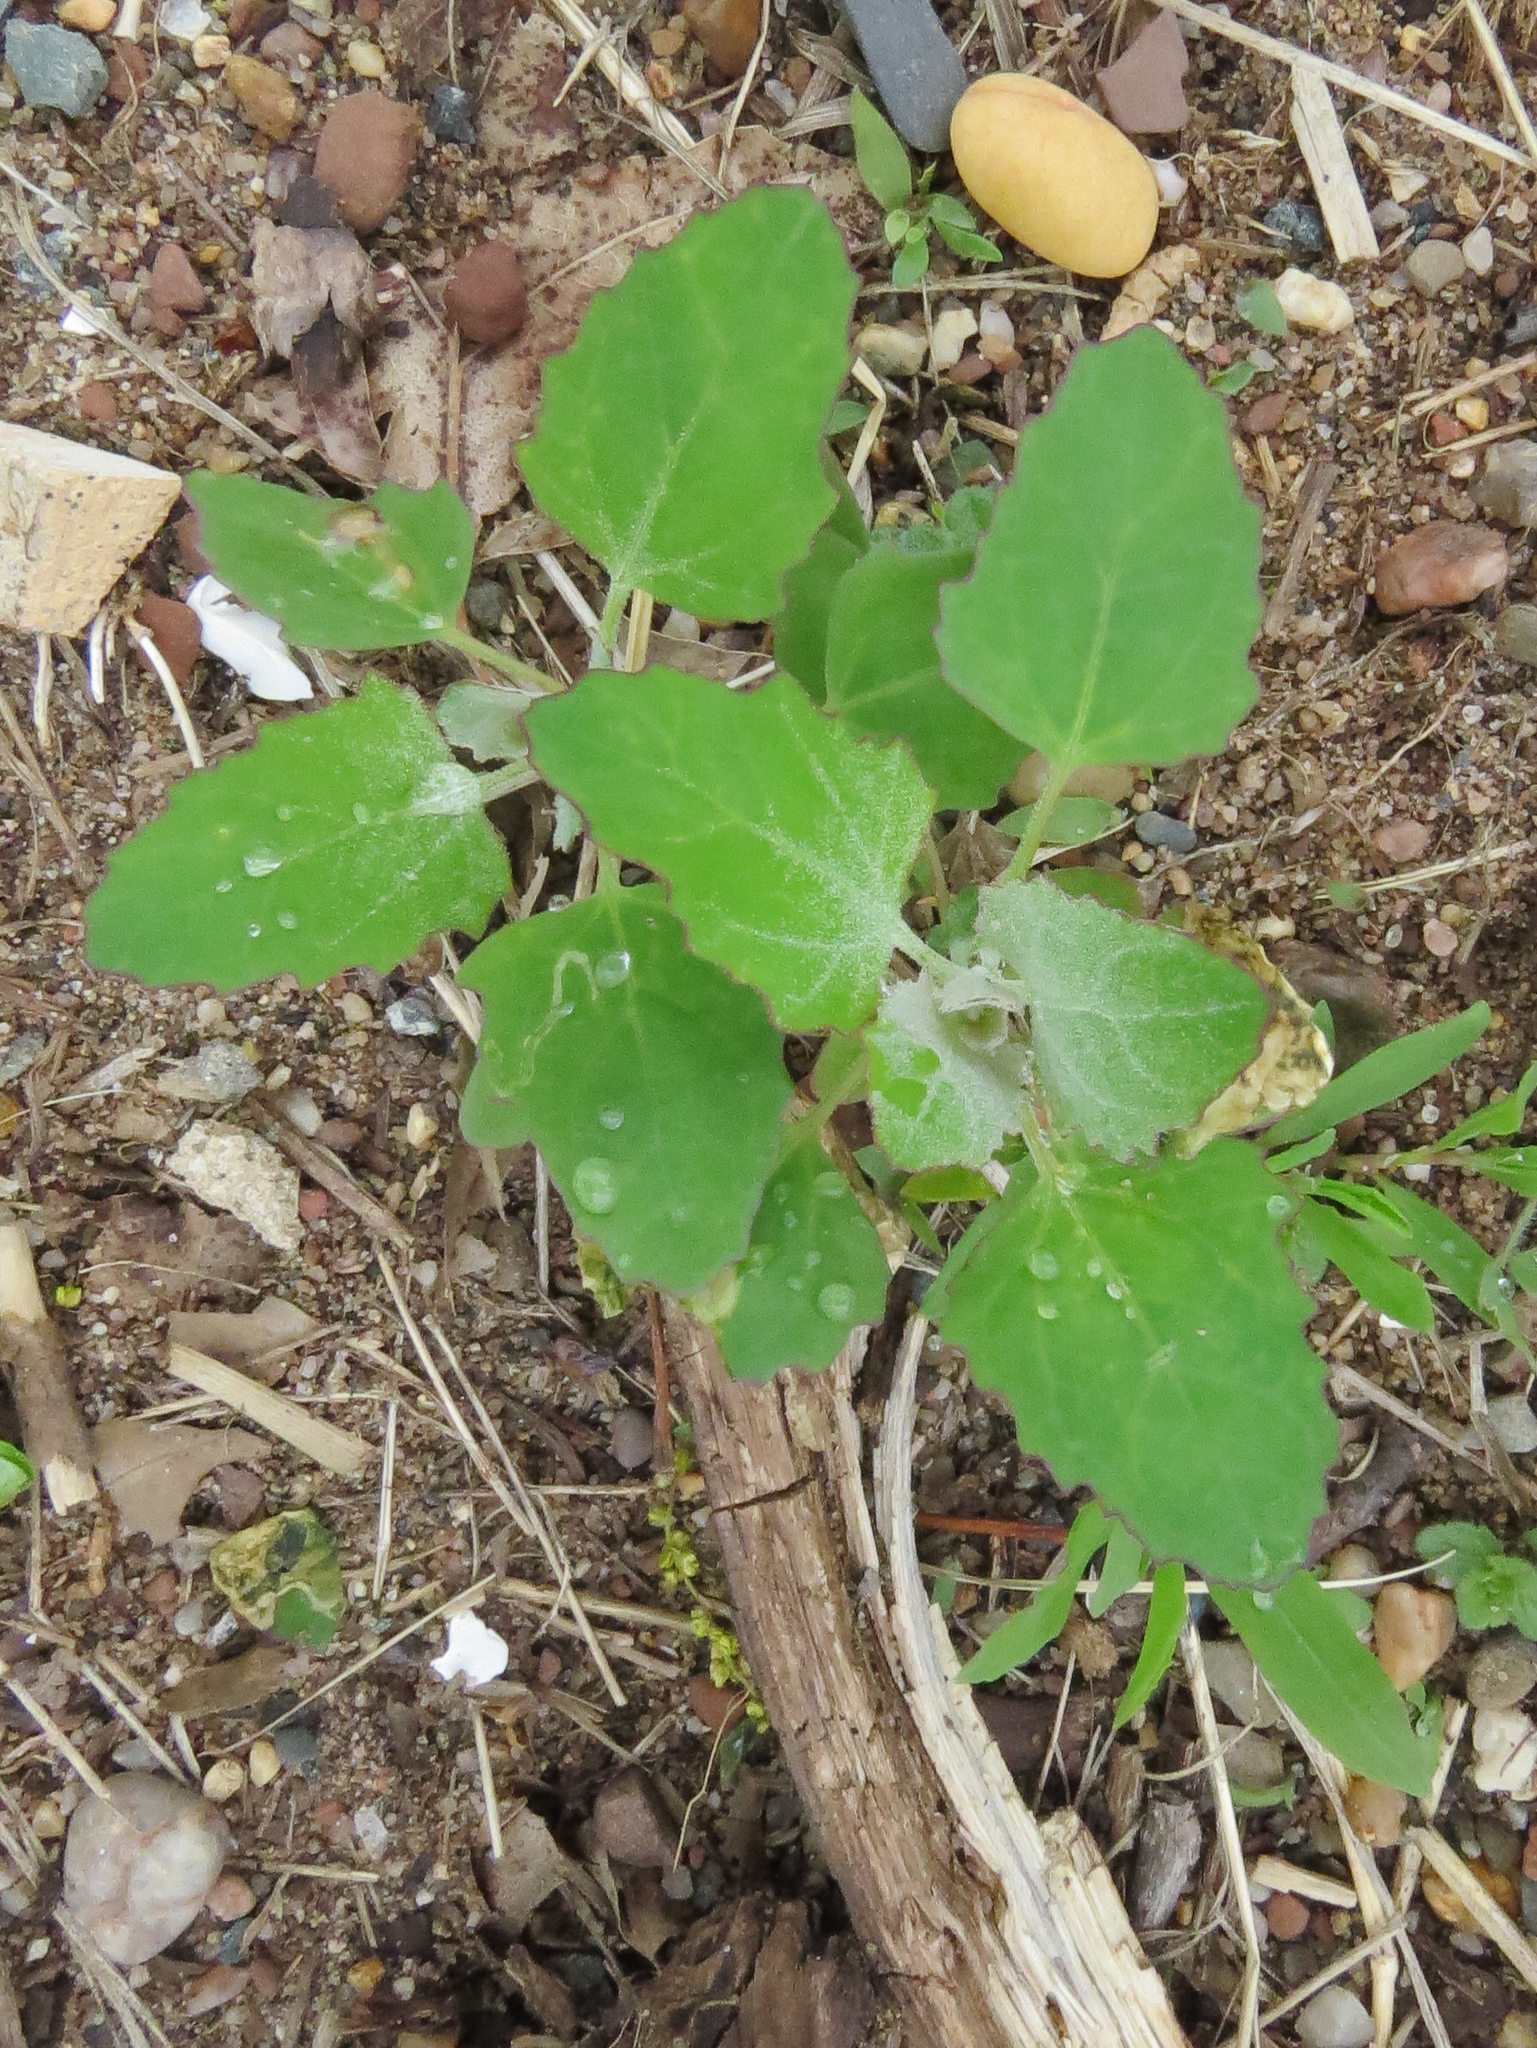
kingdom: Plantae
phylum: Tracheophyta
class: Magnoliopsida
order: Caryophyllales
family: Amaranthaceae
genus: Chenopodium
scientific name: Chenopodium album
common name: Fat-hen
